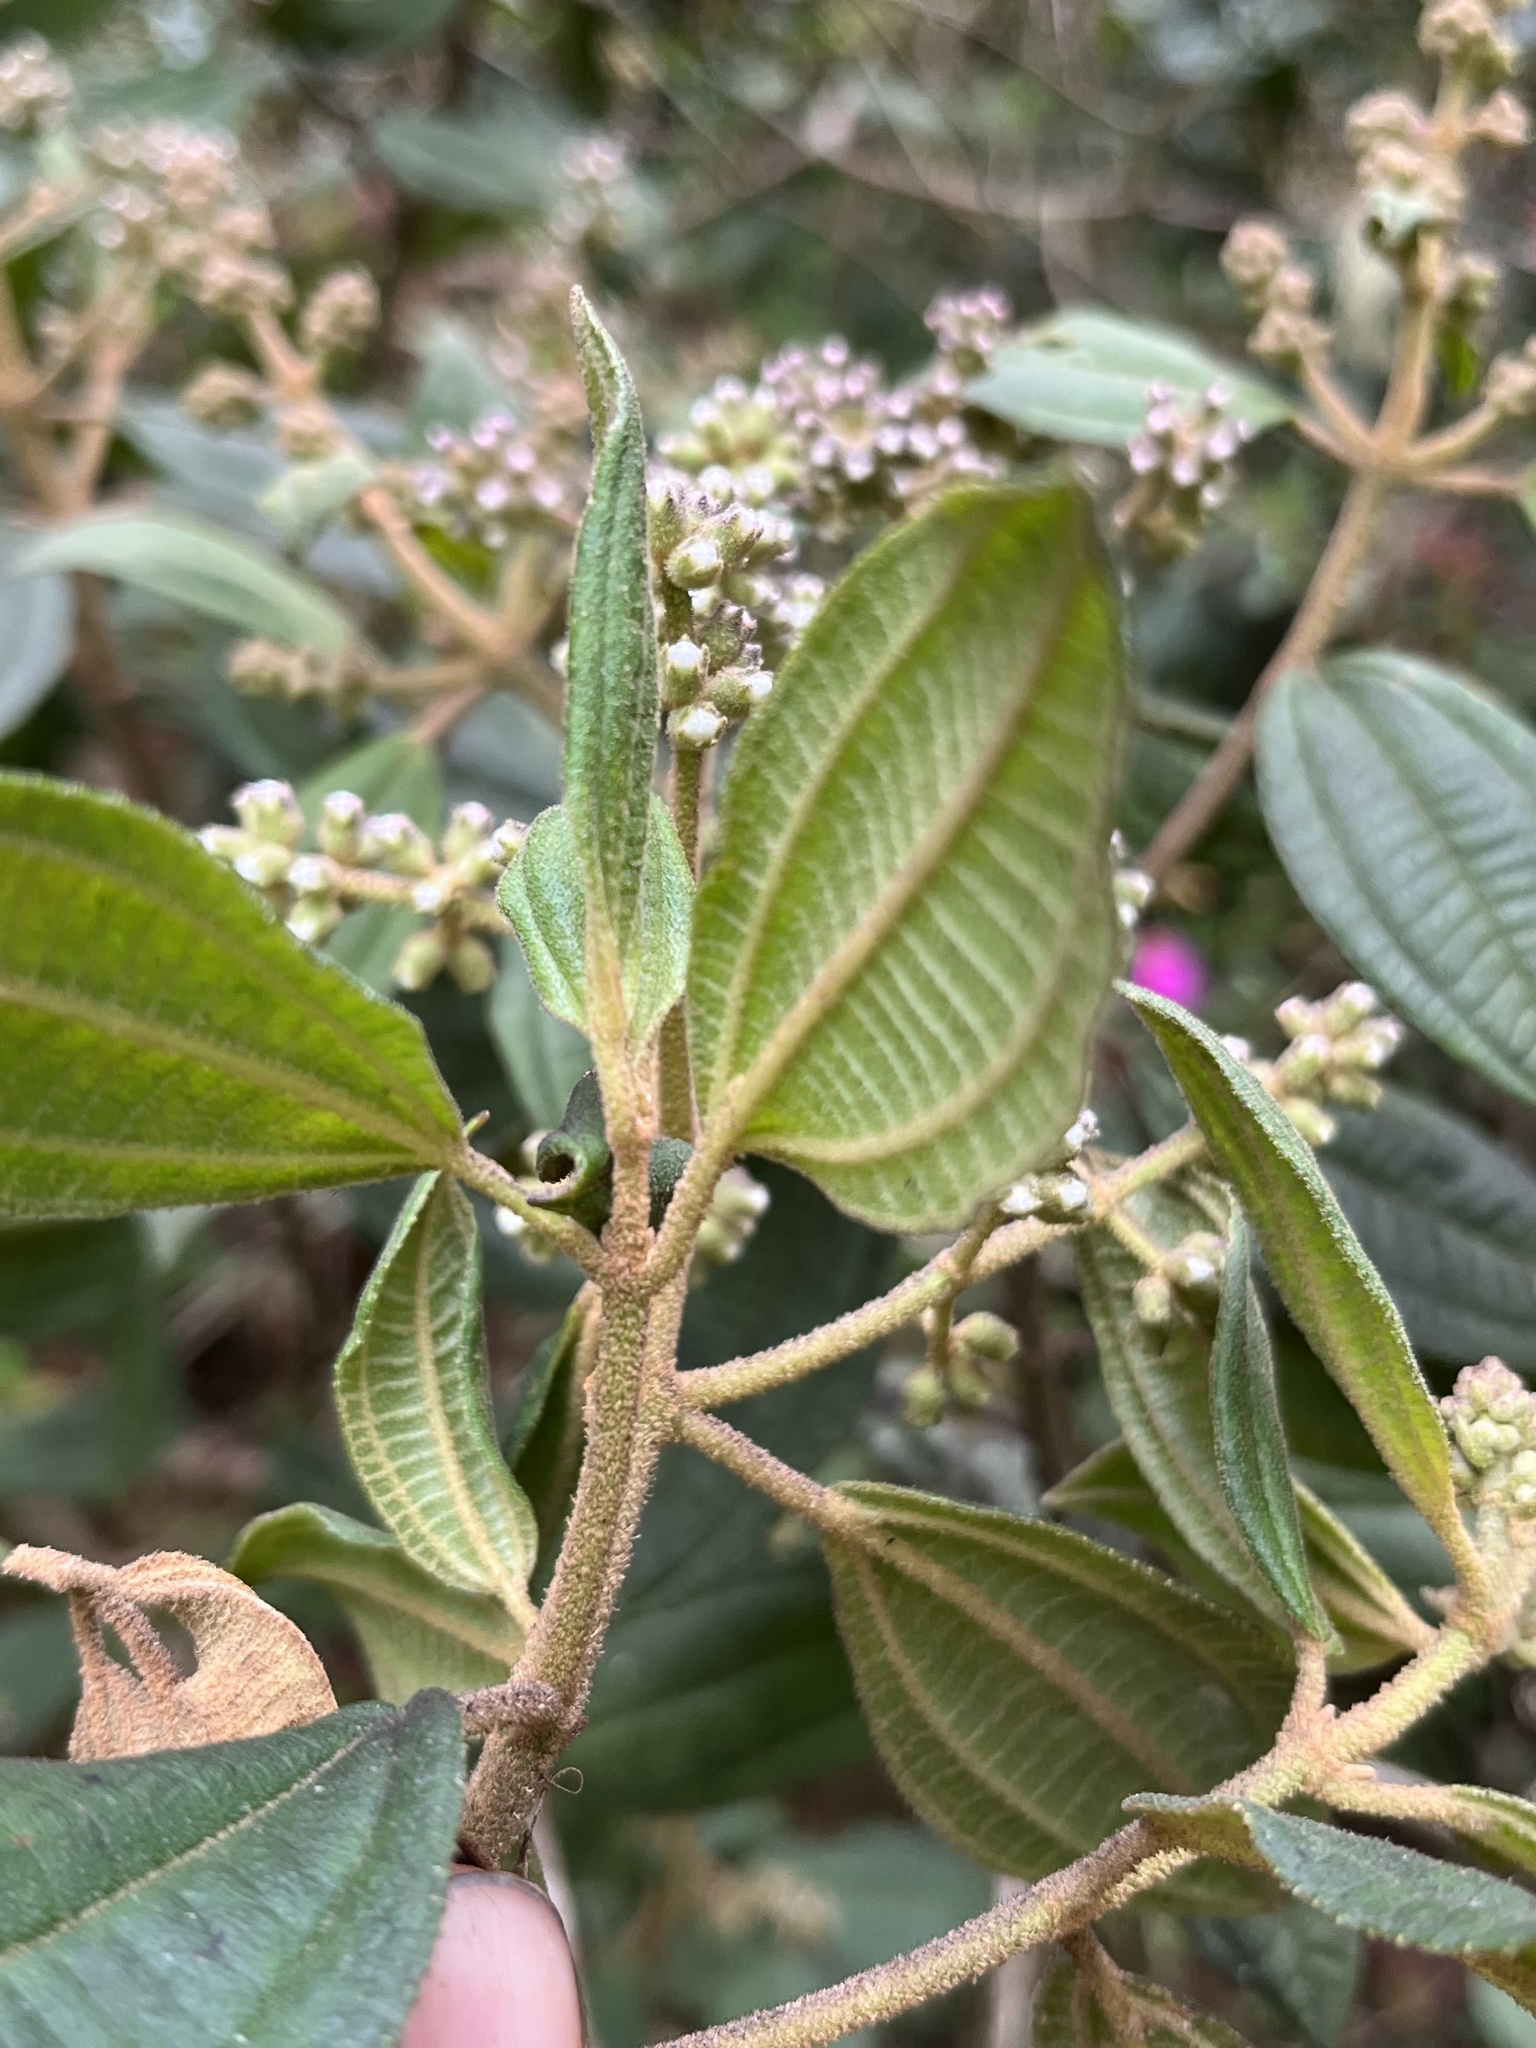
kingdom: Plantae
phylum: Tracheophyta
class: Magnoliopsida
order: Myrtales
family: Melastomataceae
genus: Miconia
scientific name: Miconia cataractae
